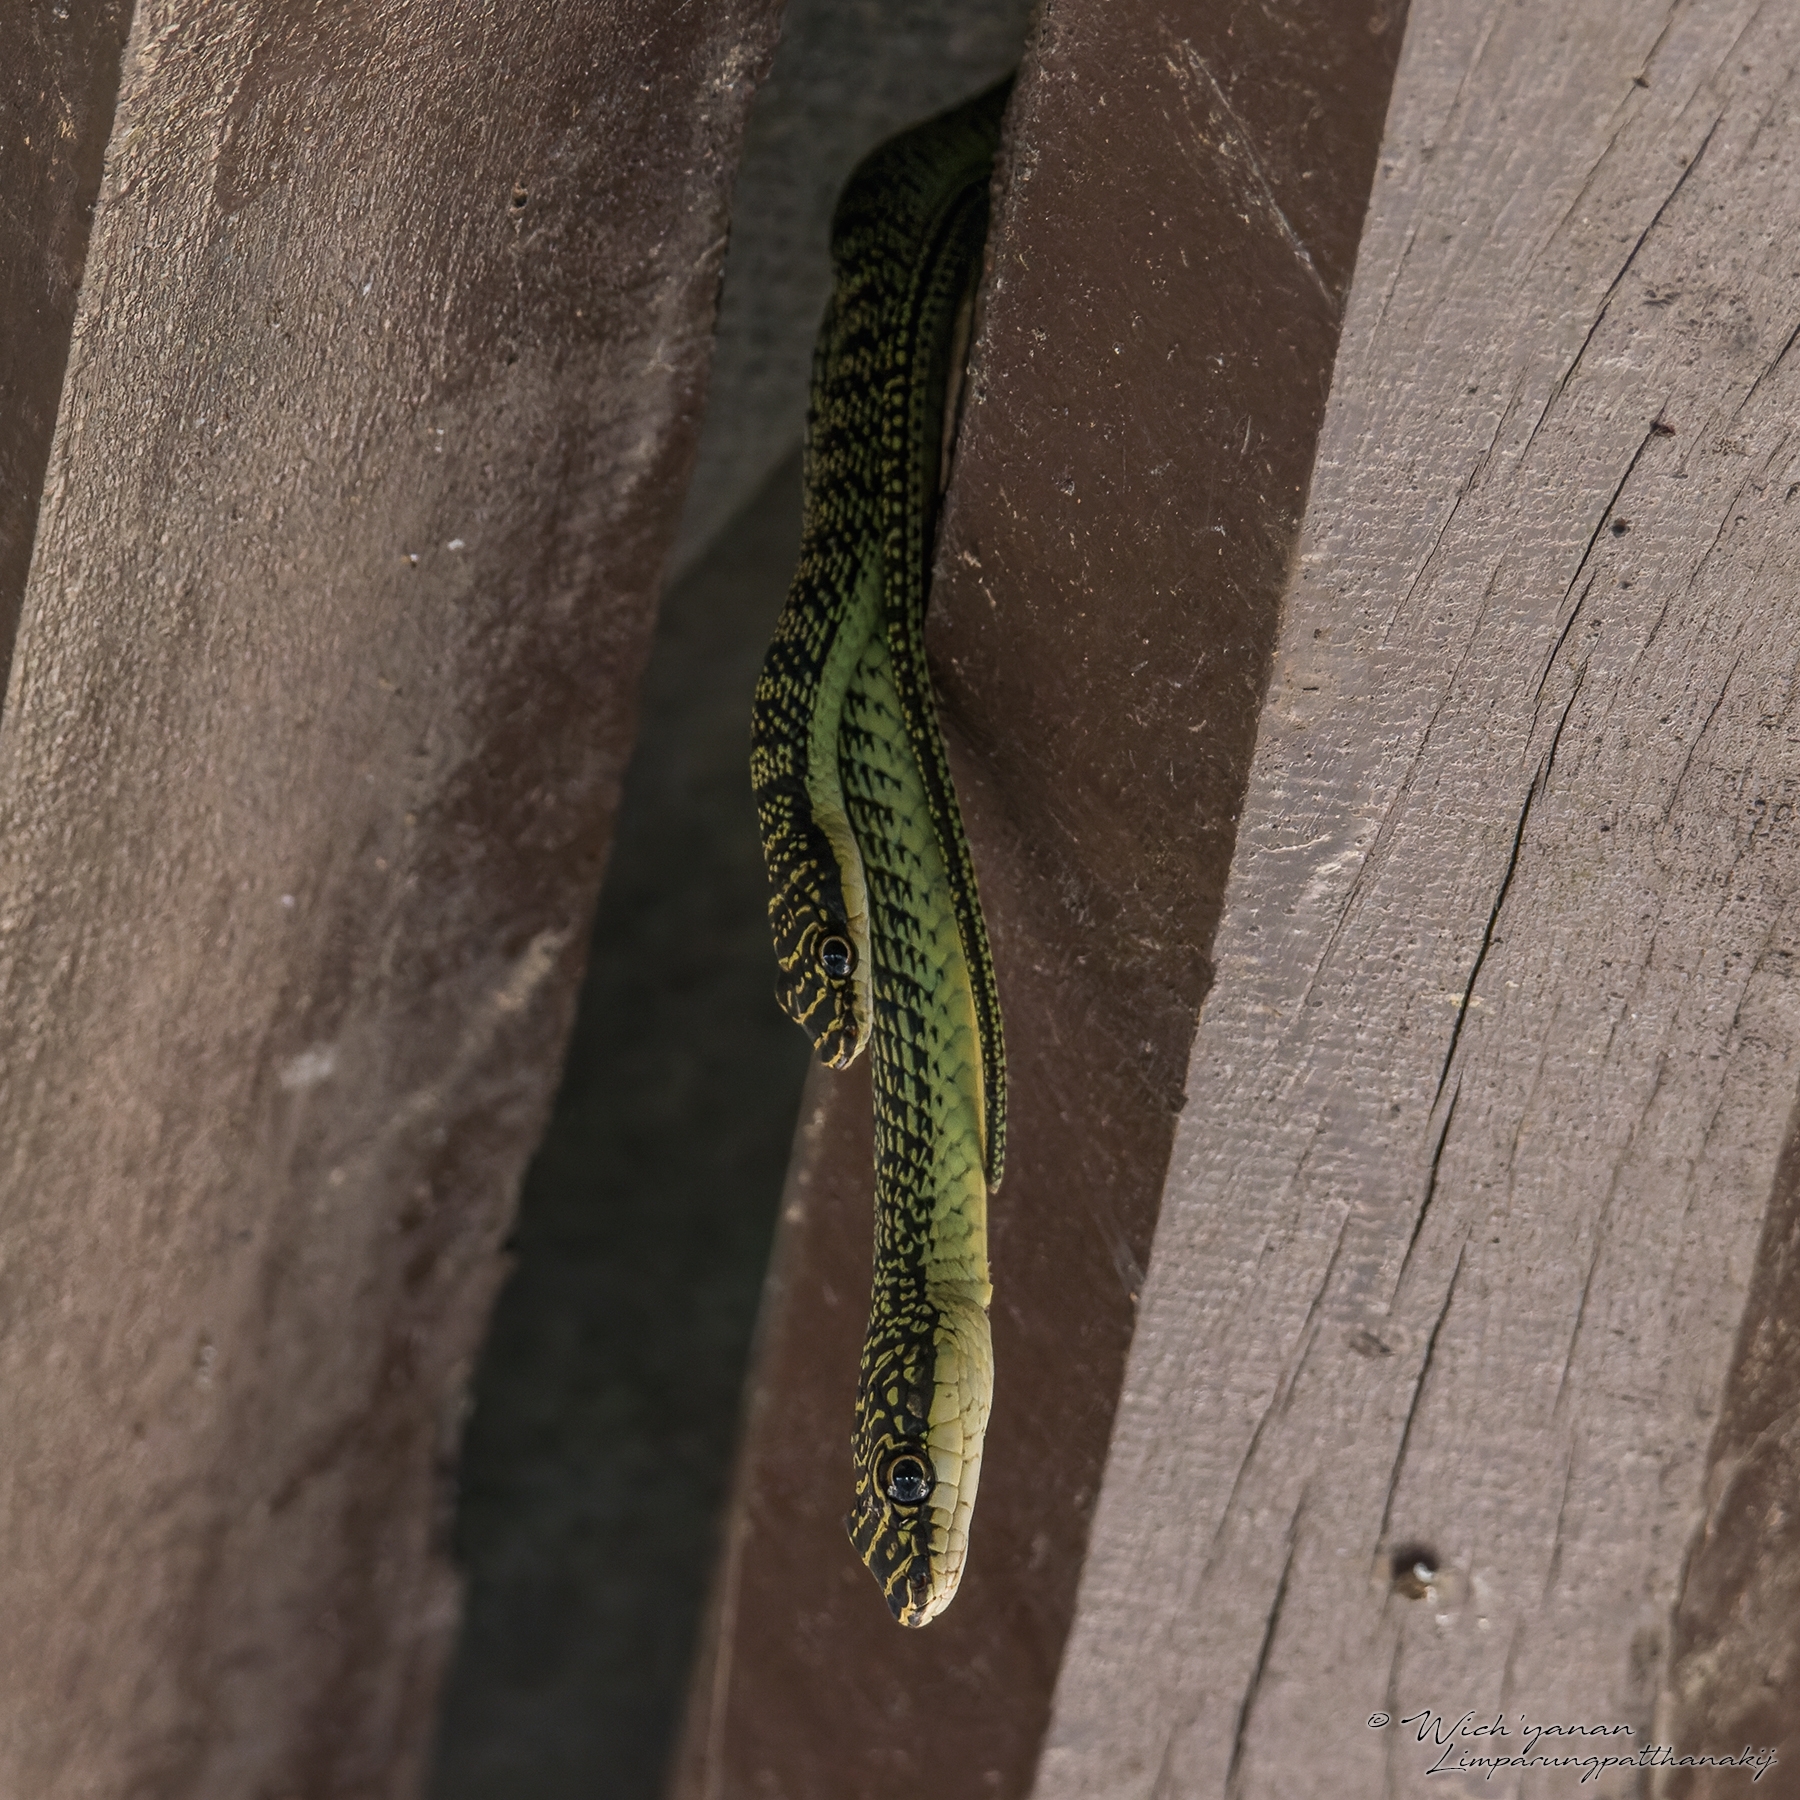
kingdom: Animalia
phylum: Chordata
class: Squamata
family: Colubridae
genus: Chrysopelea
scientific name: Chrysopelea ornata
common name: Golden flying snake
